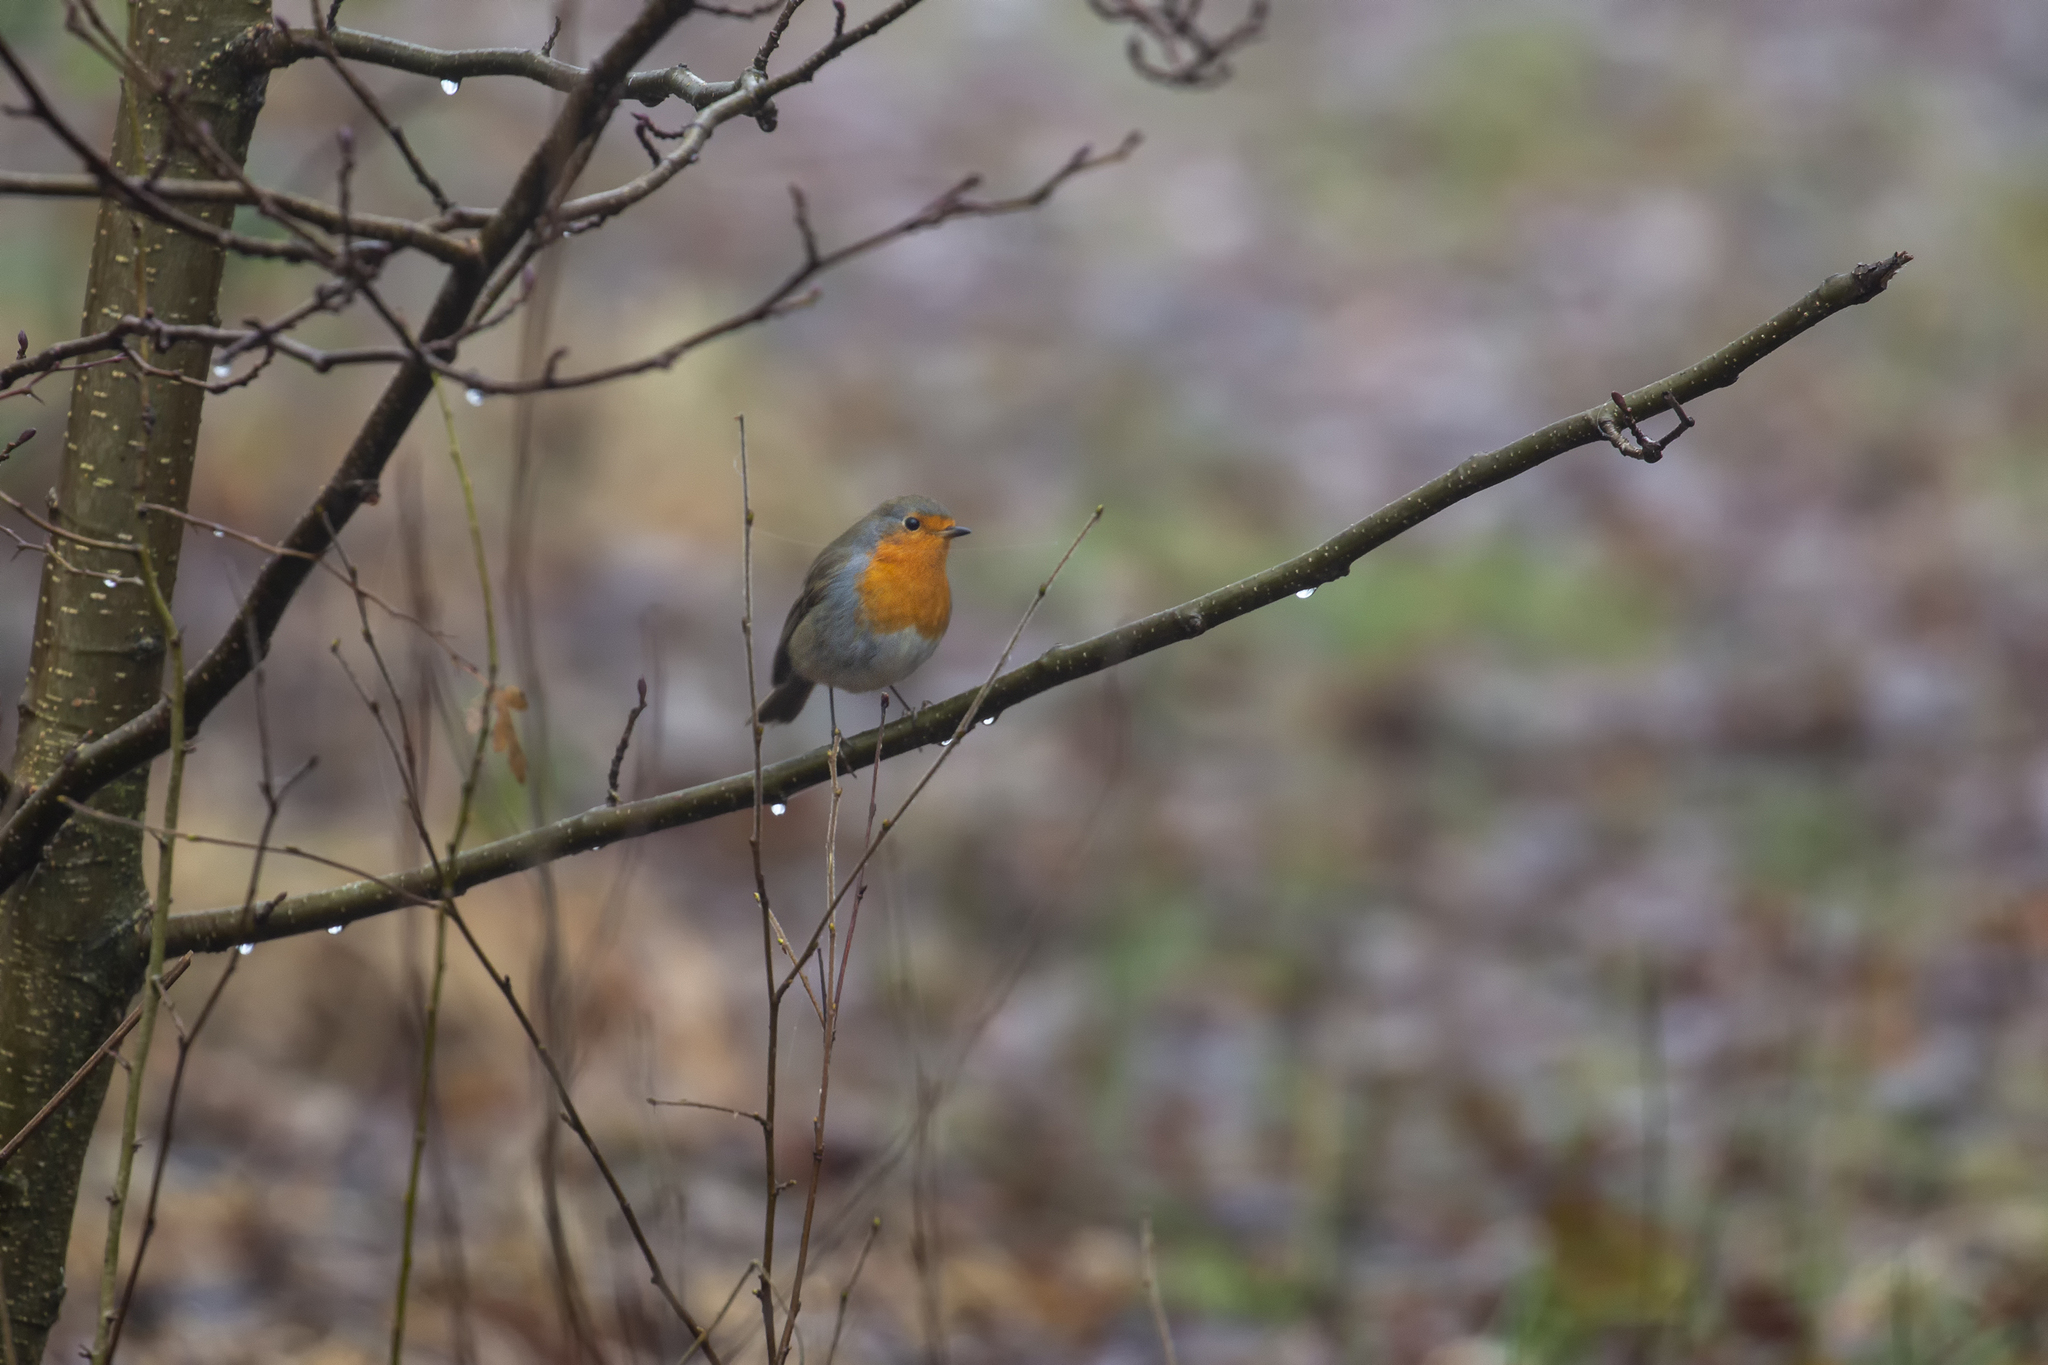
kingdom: Animalia
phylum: Chordata
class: Aves
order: Passeriformes
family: Muscicapidae
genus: Erithacus
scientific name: Erithacus rubecula
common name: European robin
